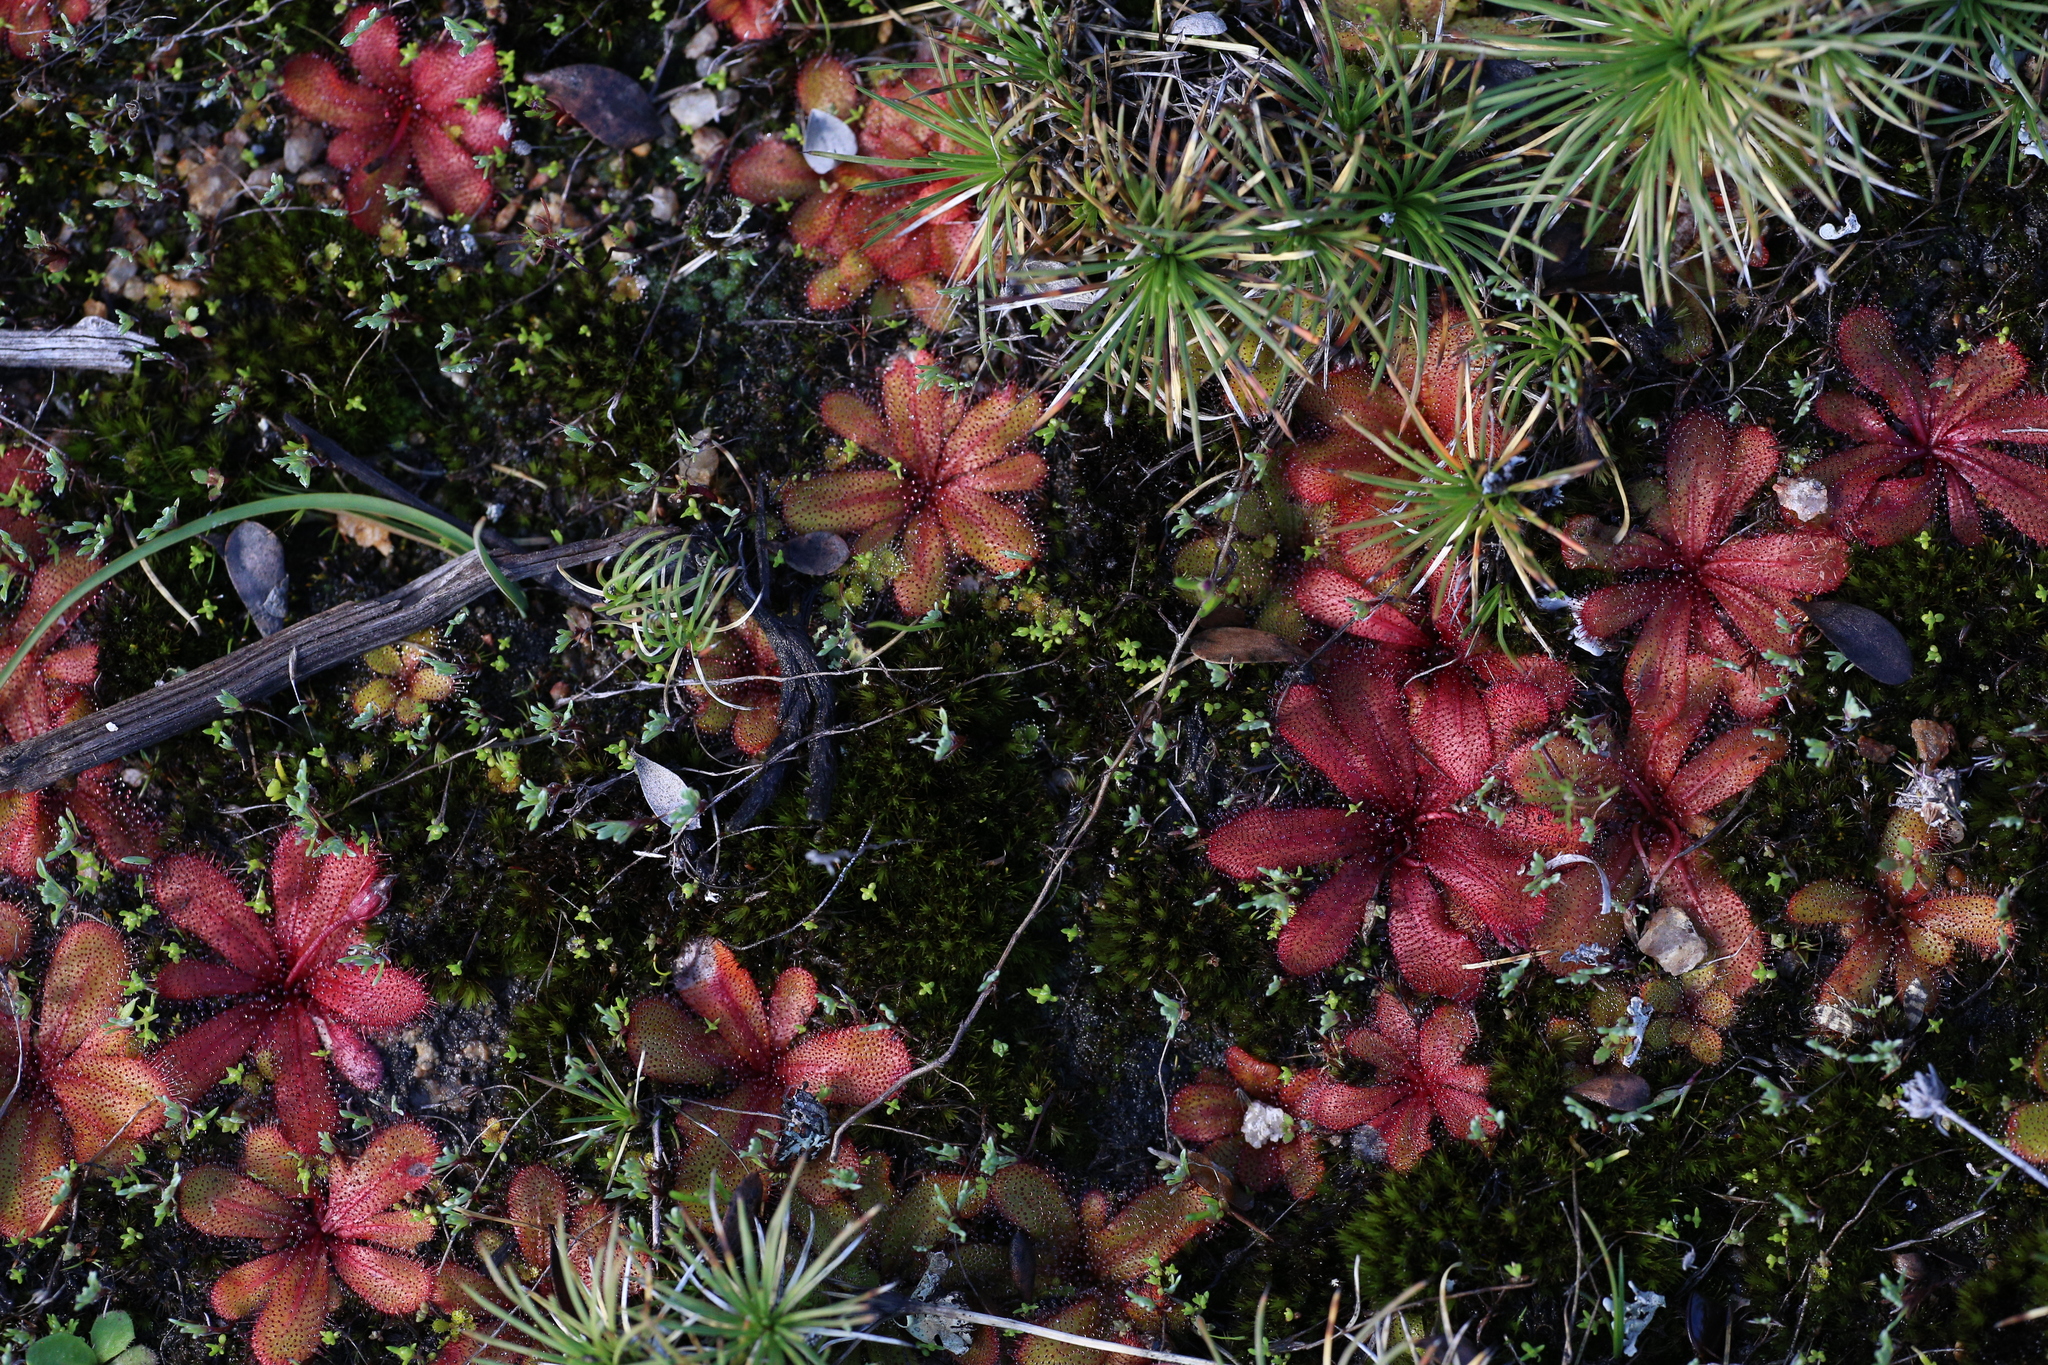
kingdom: Plantae
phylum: Tracheophyta
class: Magnoliopsida
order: Caryophyllales
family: Droseraceae
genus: Drosera
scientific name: Drosera bulbosa
